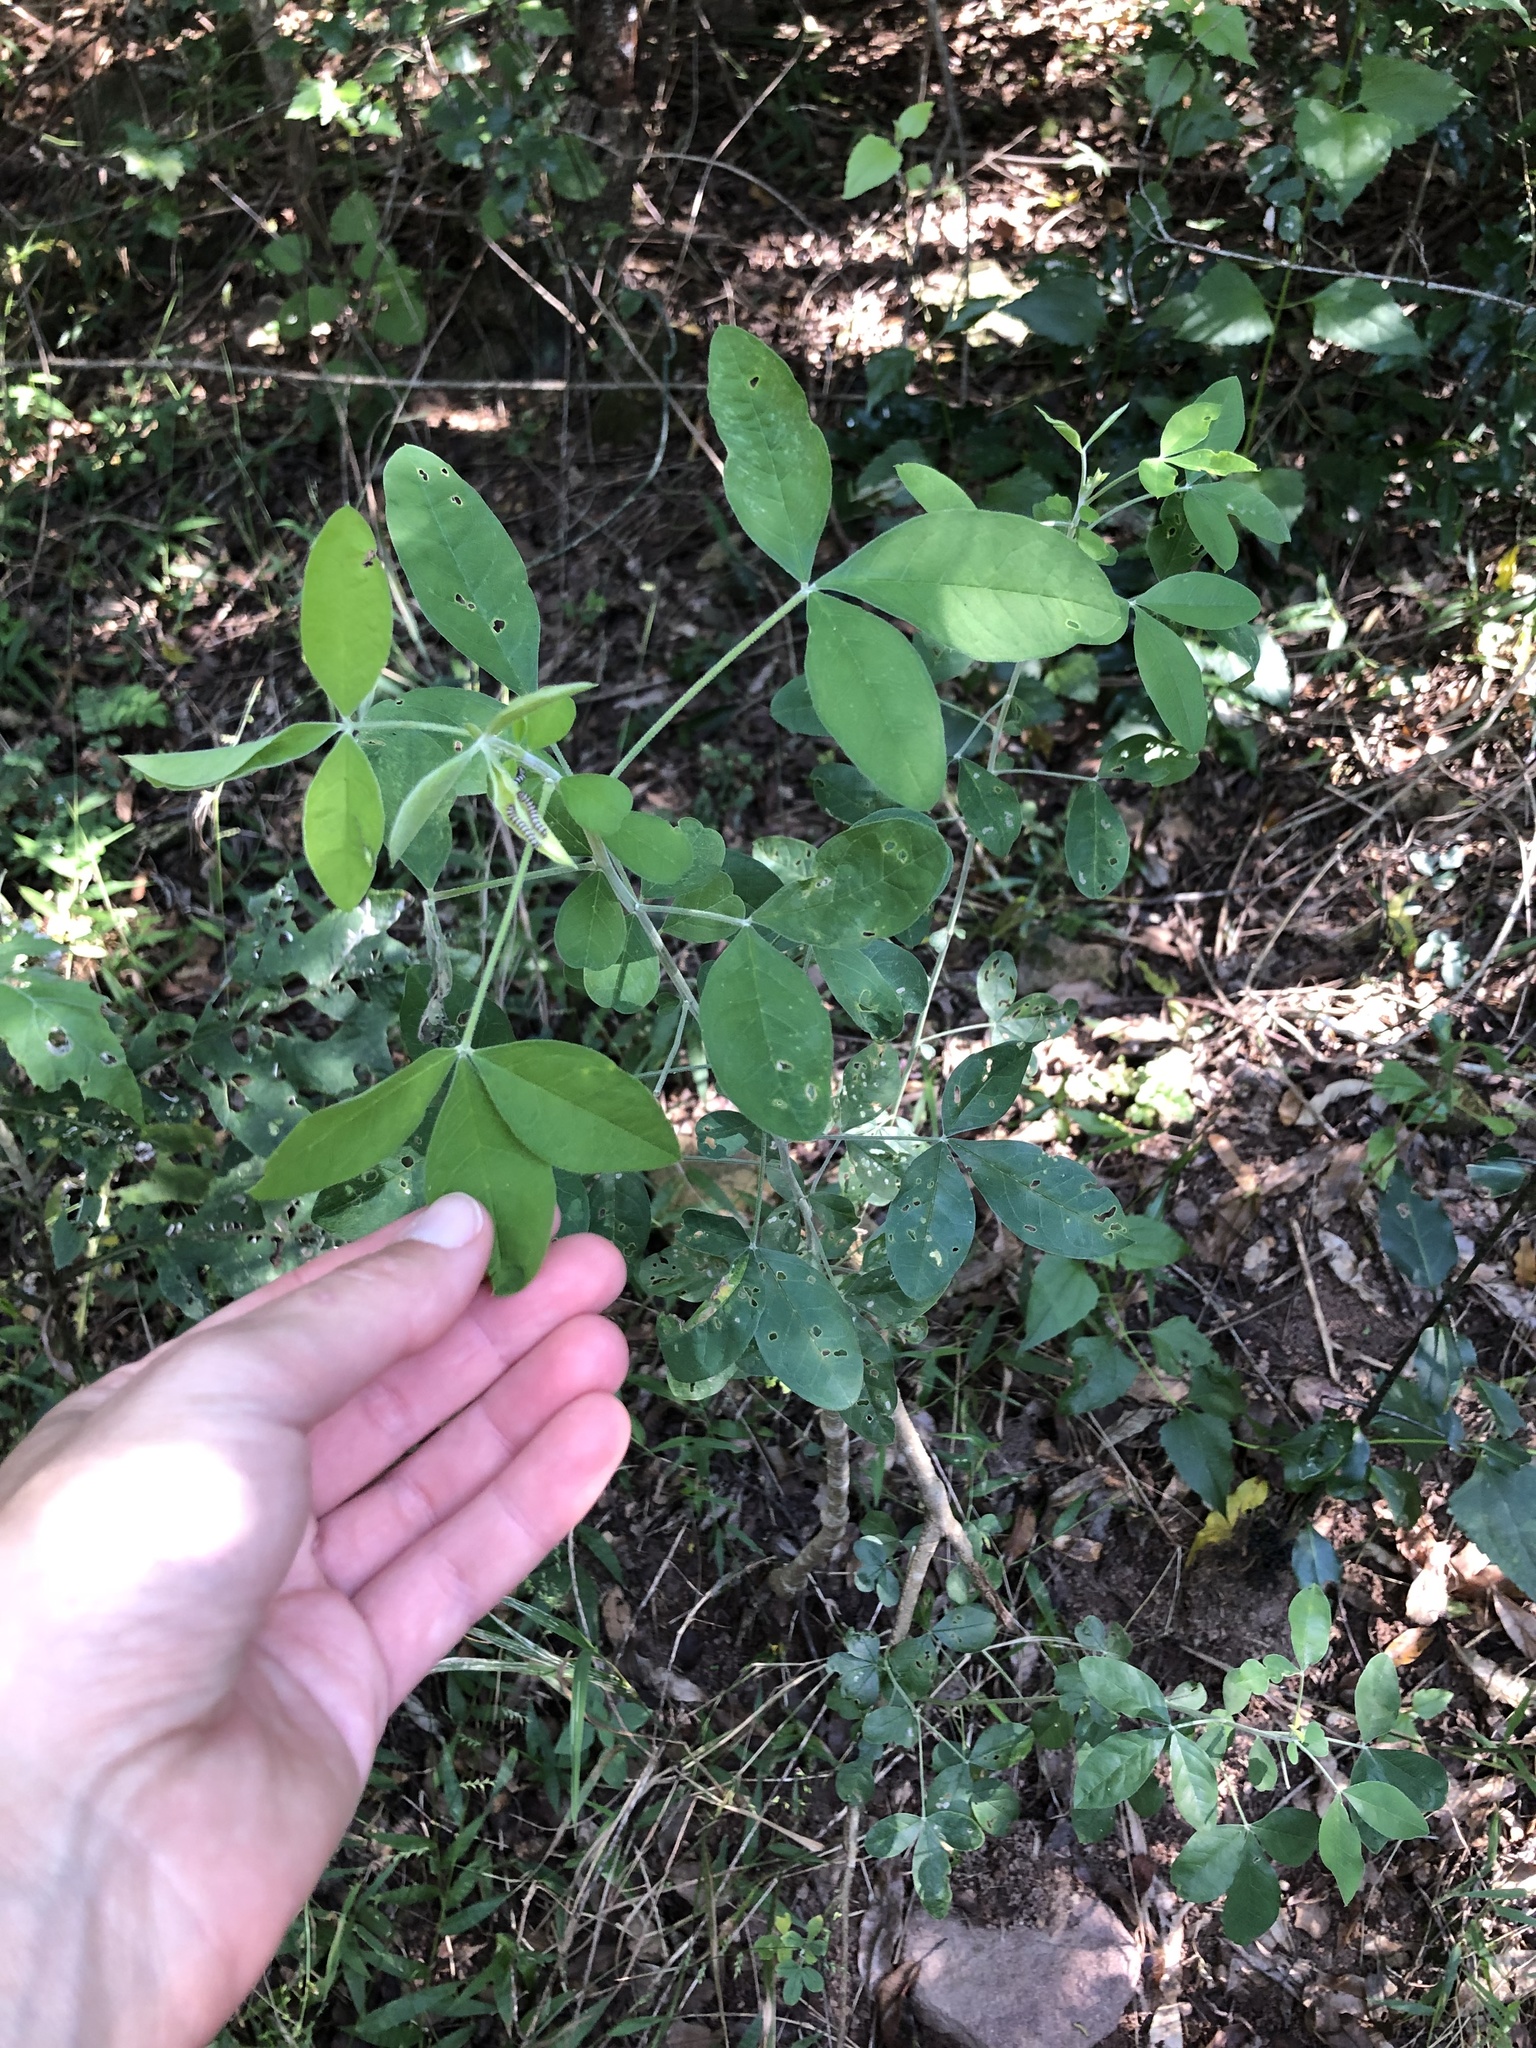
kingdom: Plantae
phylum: Tracheophyta
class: Magnoliopsida
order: Fabales
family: Fabaceae
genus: Crotalaria
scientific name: Crotalaria capensis
